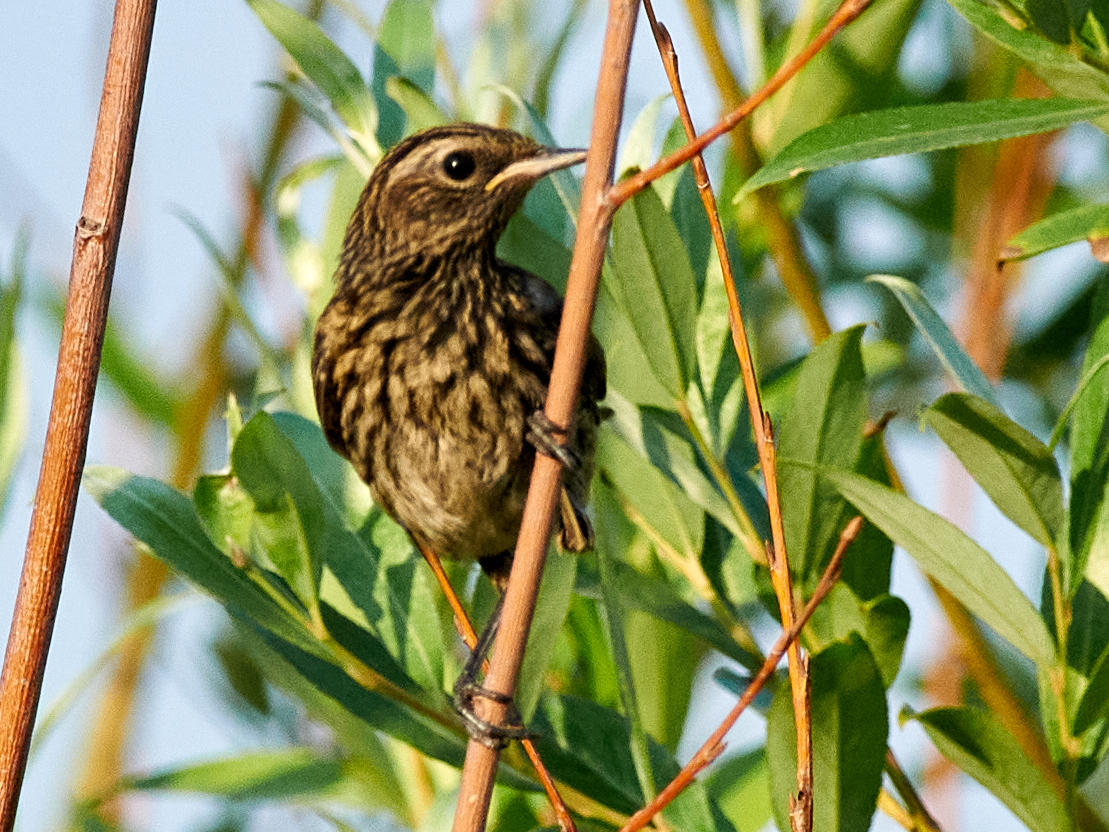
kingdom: Animalia
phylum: Chordata
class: Aves
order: Passeriformes
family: Muscicapidae
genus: Luscinia
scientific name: Luscinia svecica
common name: Bluethroat
